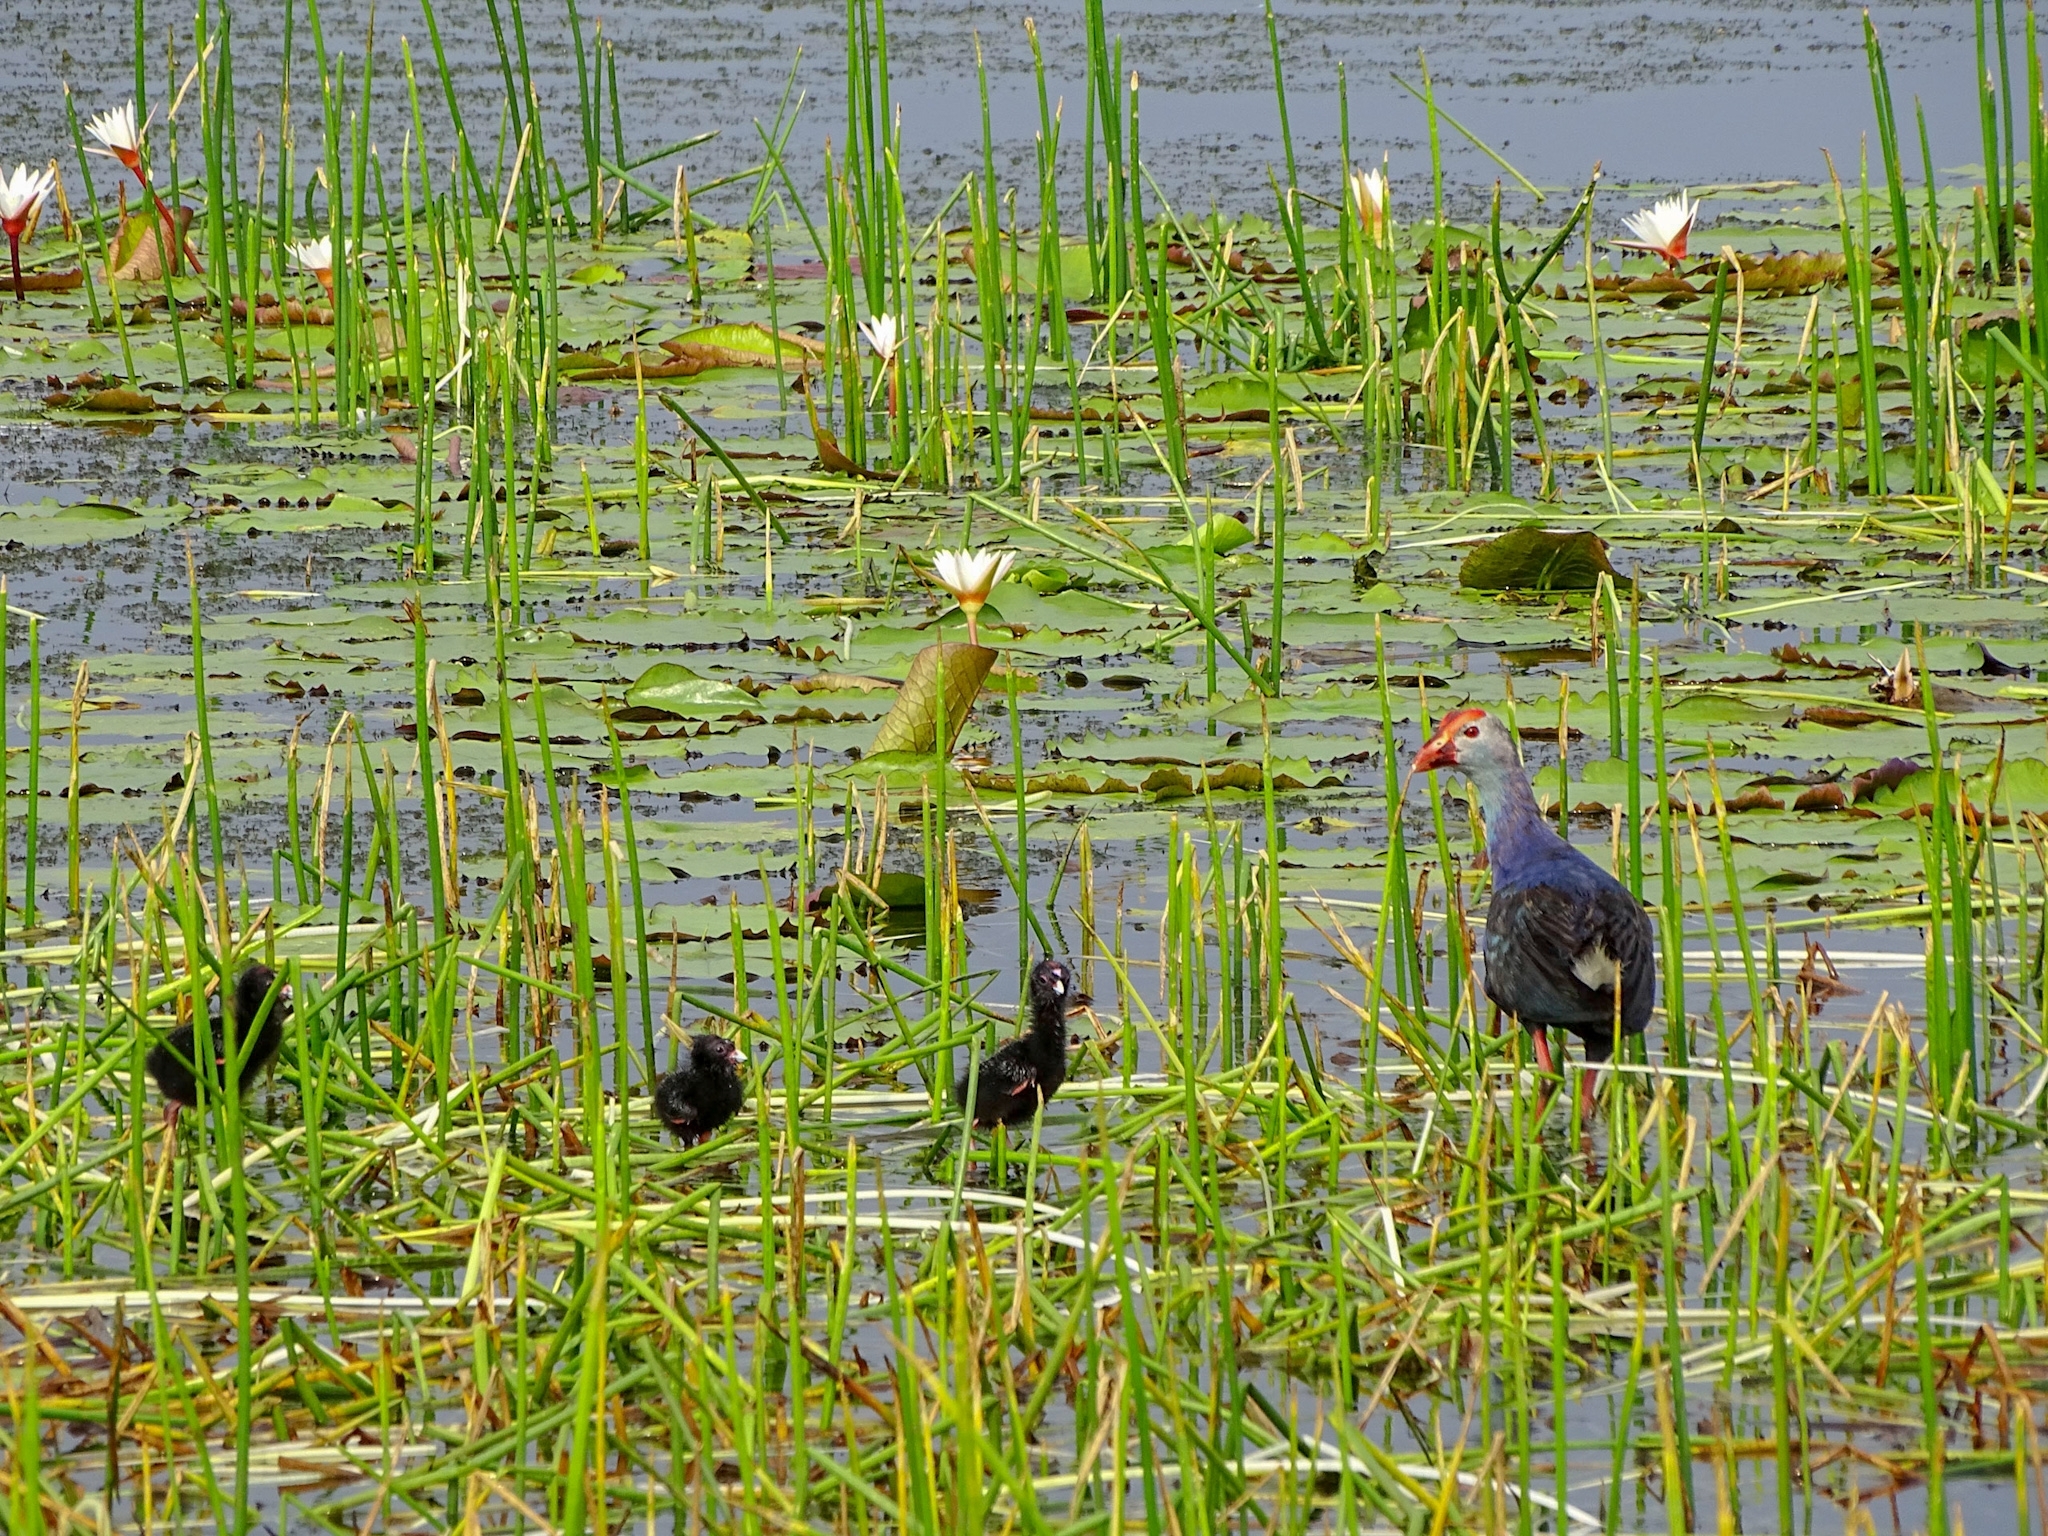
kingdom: Animalia
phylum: Chordata
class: Aves
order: Gruiformes
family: Rallidae
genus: Porphyrio
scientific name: Porphyrio porphyrio
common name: Purple swamphen
